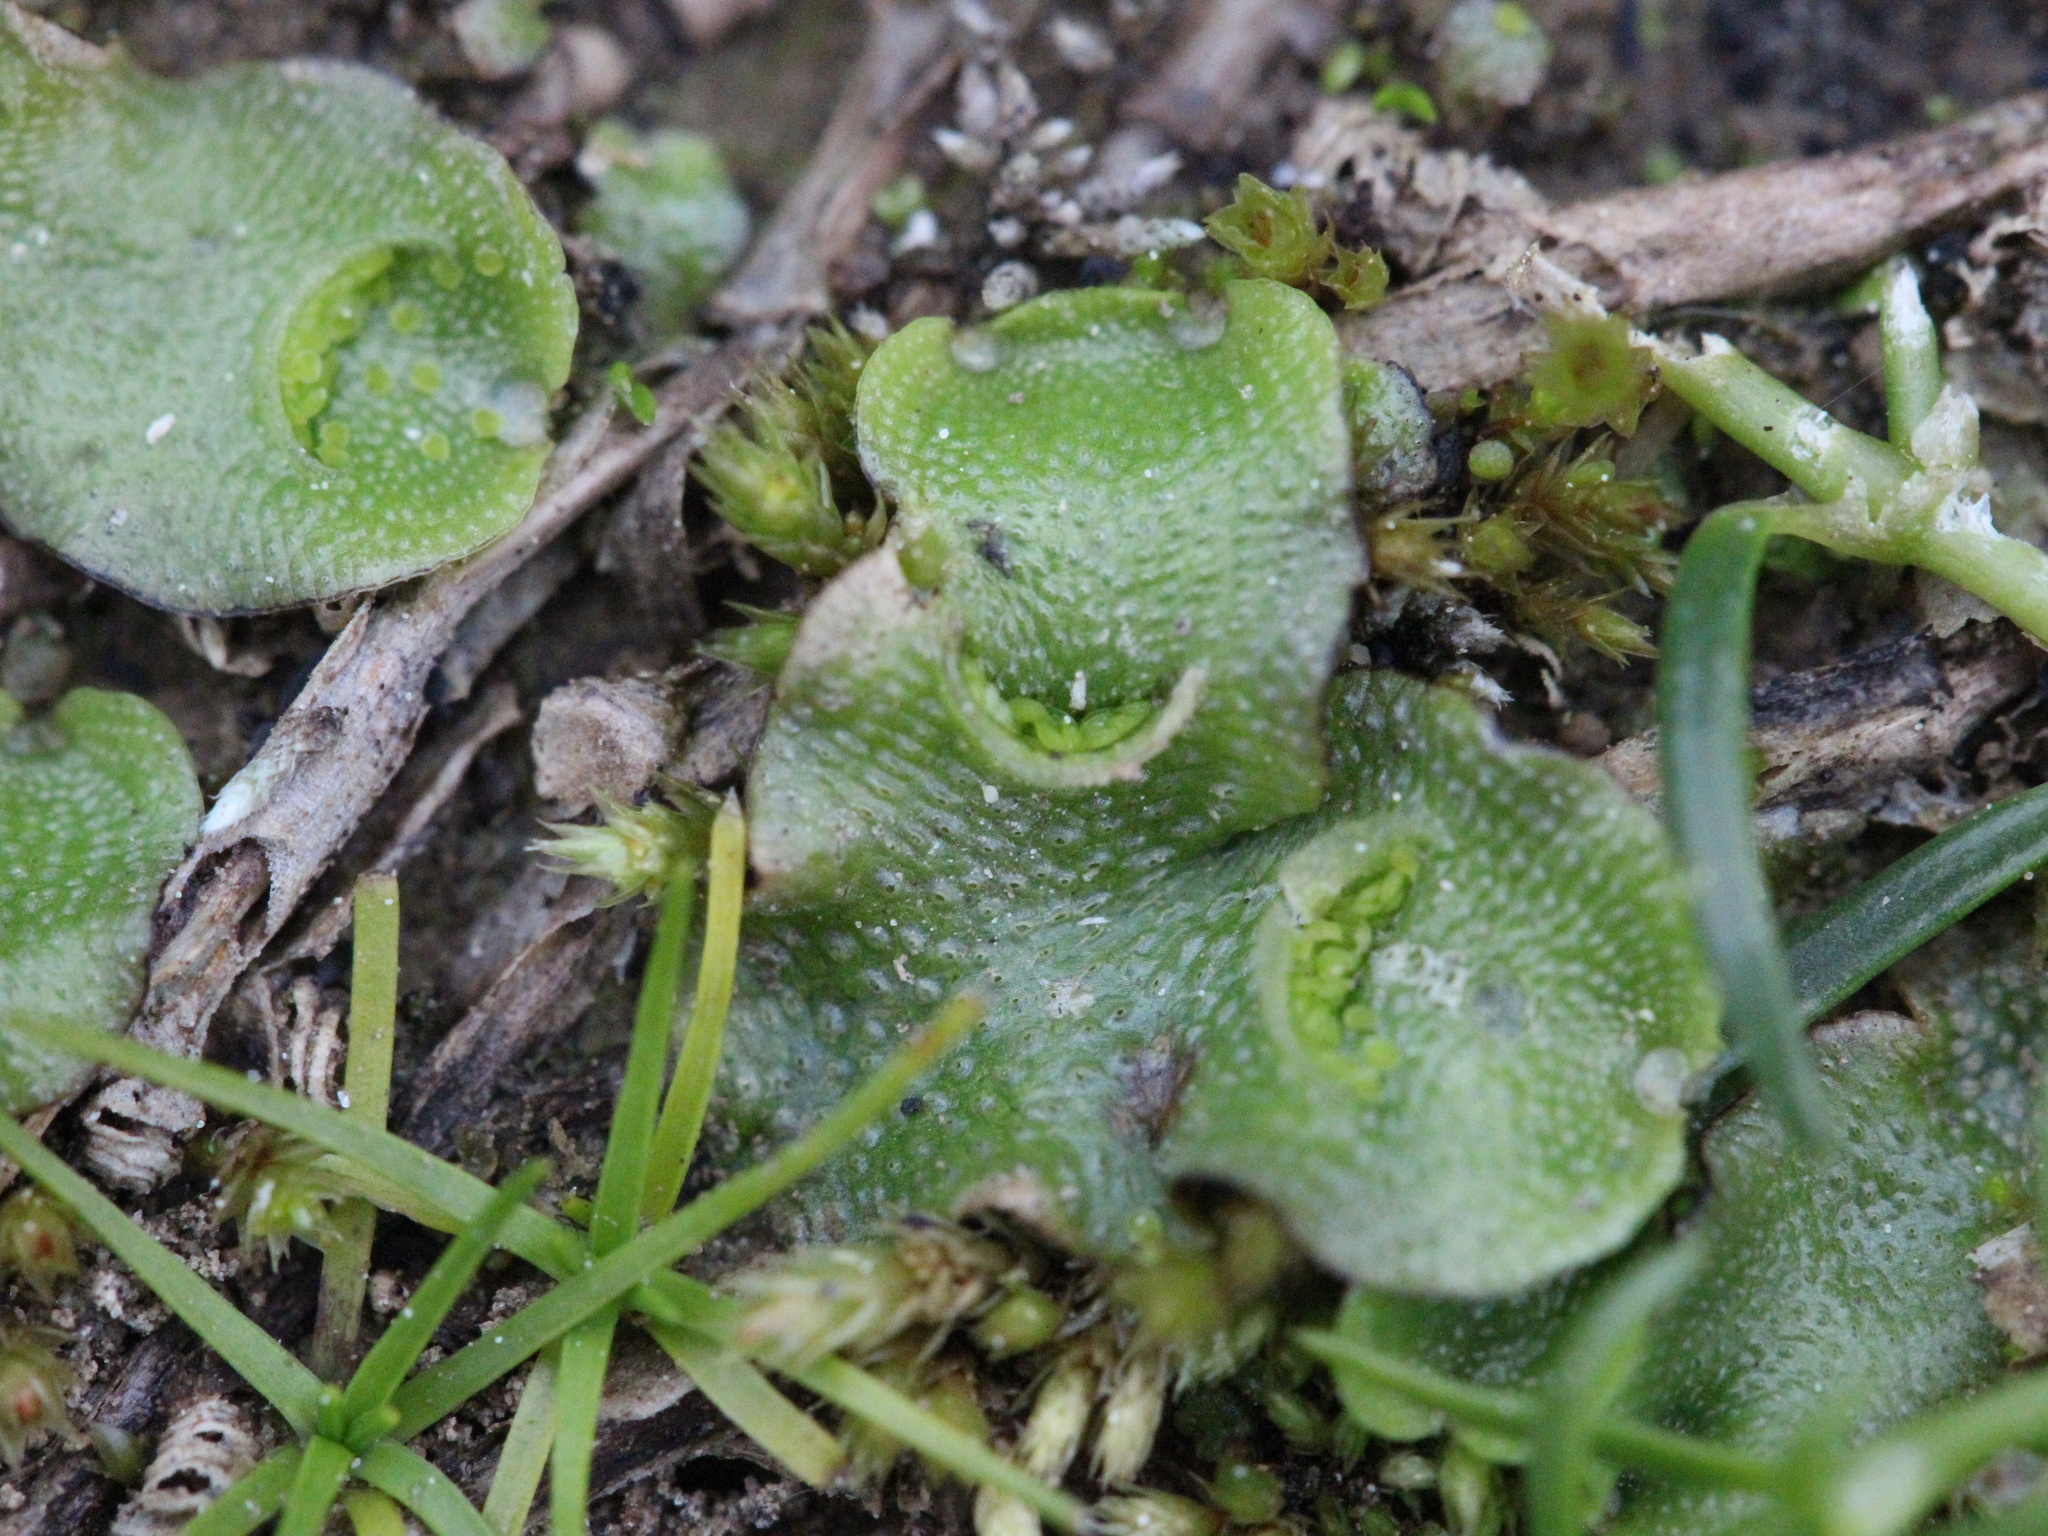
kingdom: Plantae
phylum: Marchantiophyta
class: Marchantiopsida
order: Lunulariales
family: Lunulariaceae
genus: Lunularia
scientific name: Lunularia cruciata
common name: Crescent-cup liverwort
